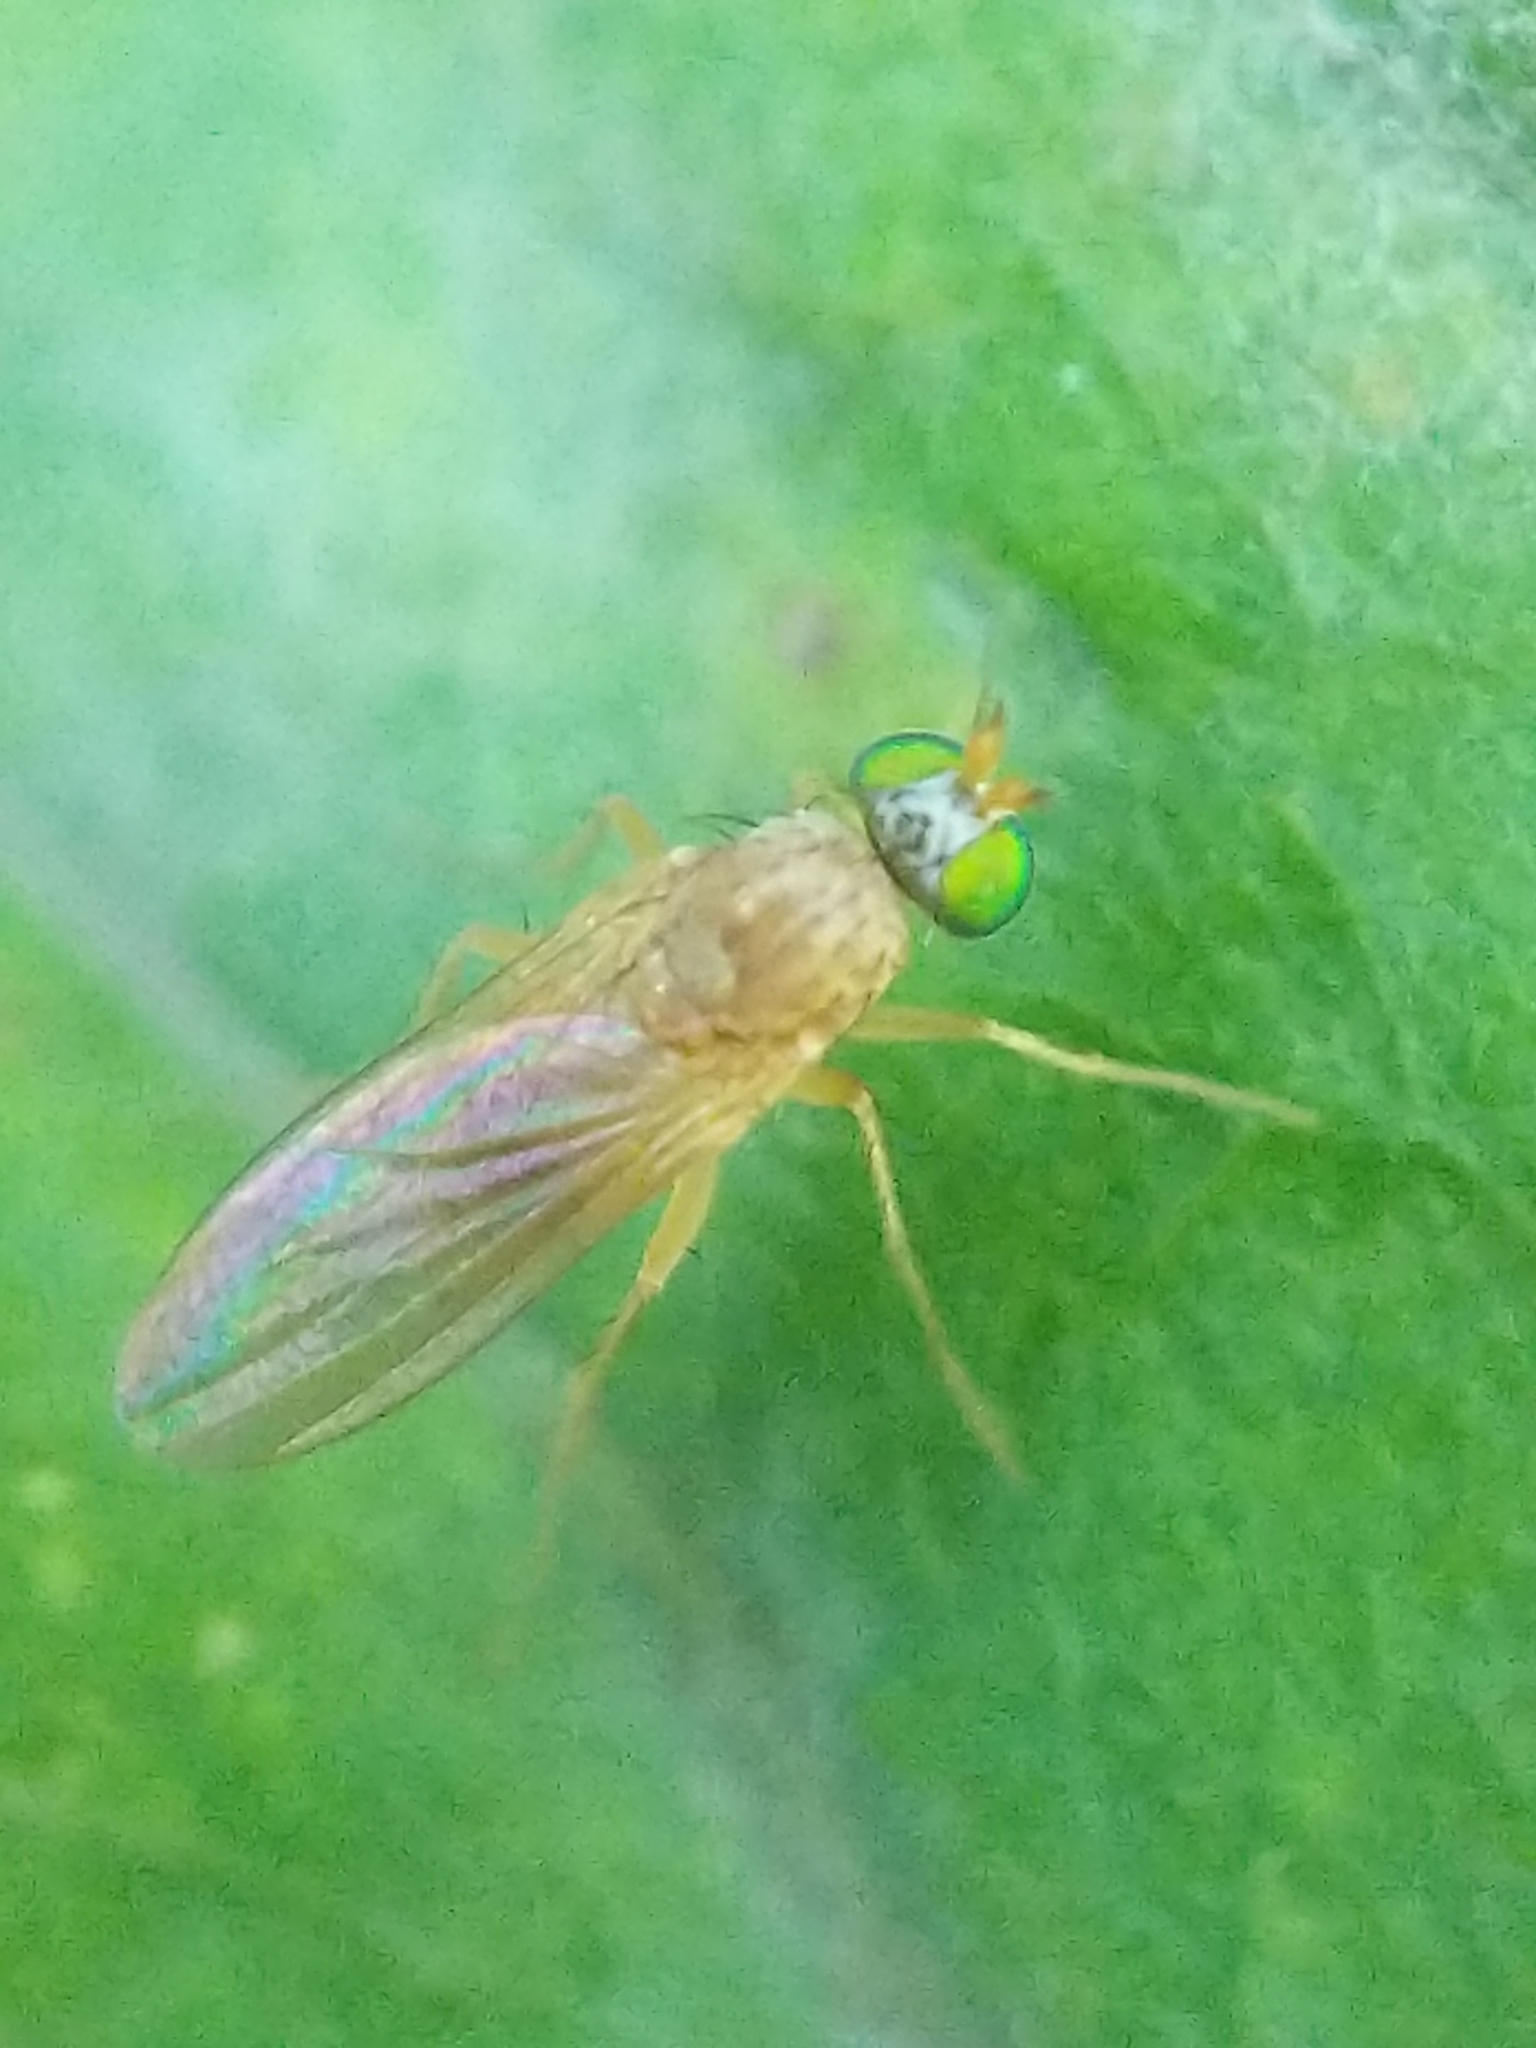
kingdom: Animalia
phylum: Arthropoda
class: Insecta
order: Diptera
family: Dolichopodidae
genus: Gymnopternus
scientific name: Gymnopternus flavus
